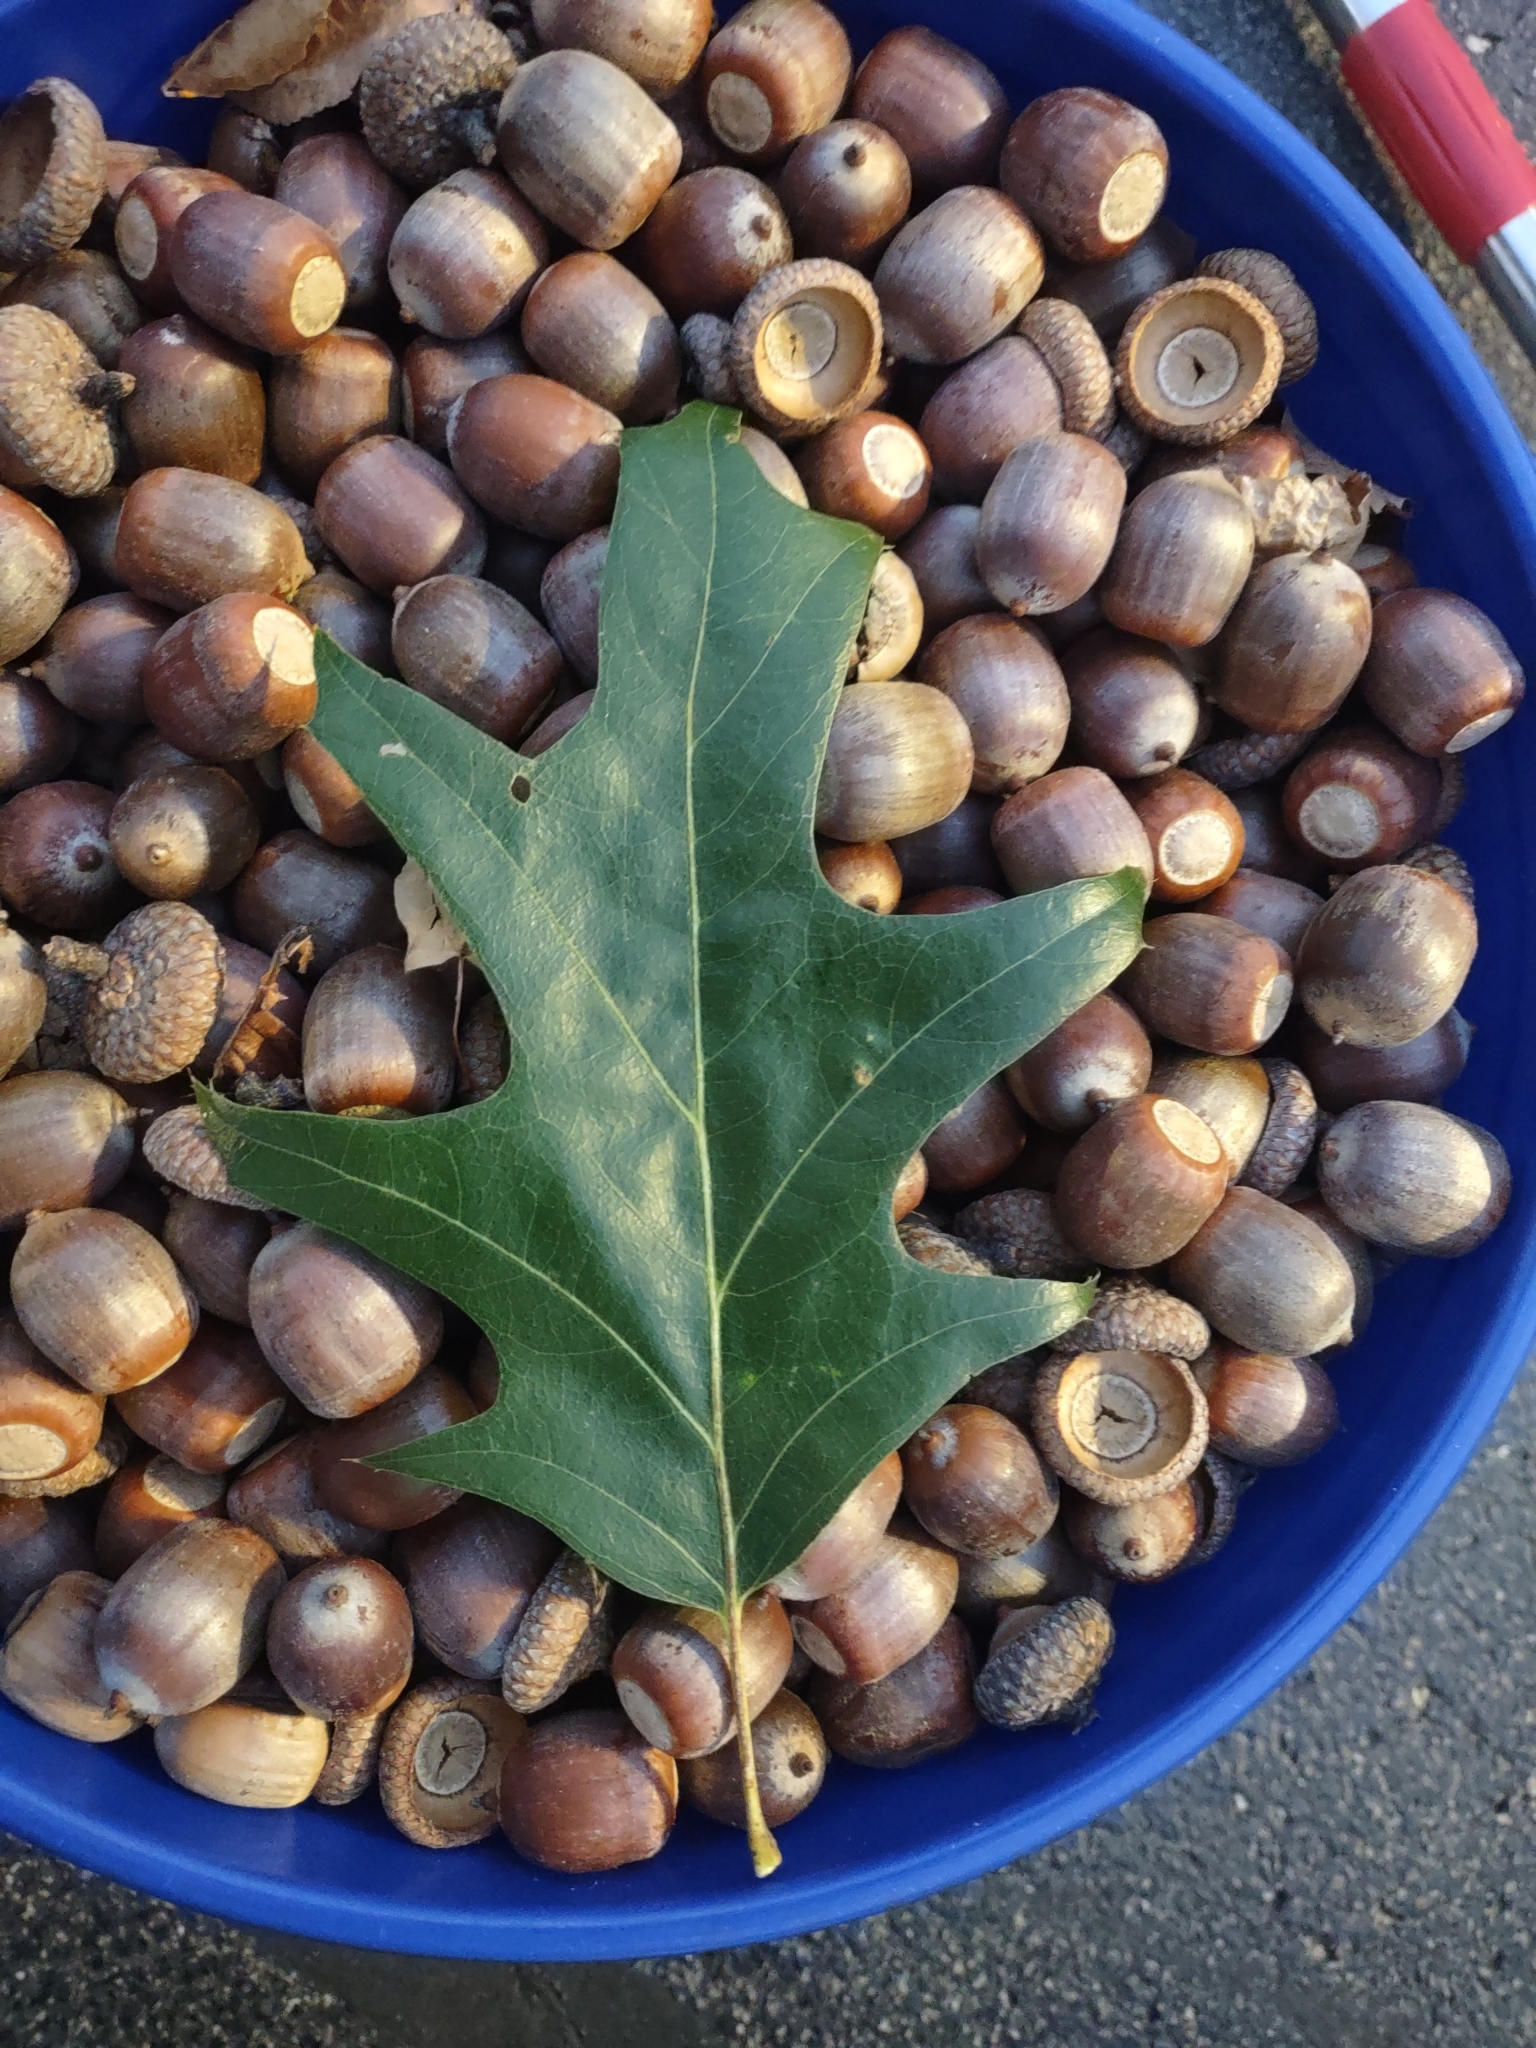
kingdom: Plantae
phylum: Tracheophyta
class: Magnoliopsida
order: Fagales
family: Fagaceae
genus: Quercus
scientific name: Quercus rubra
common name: Red oak
